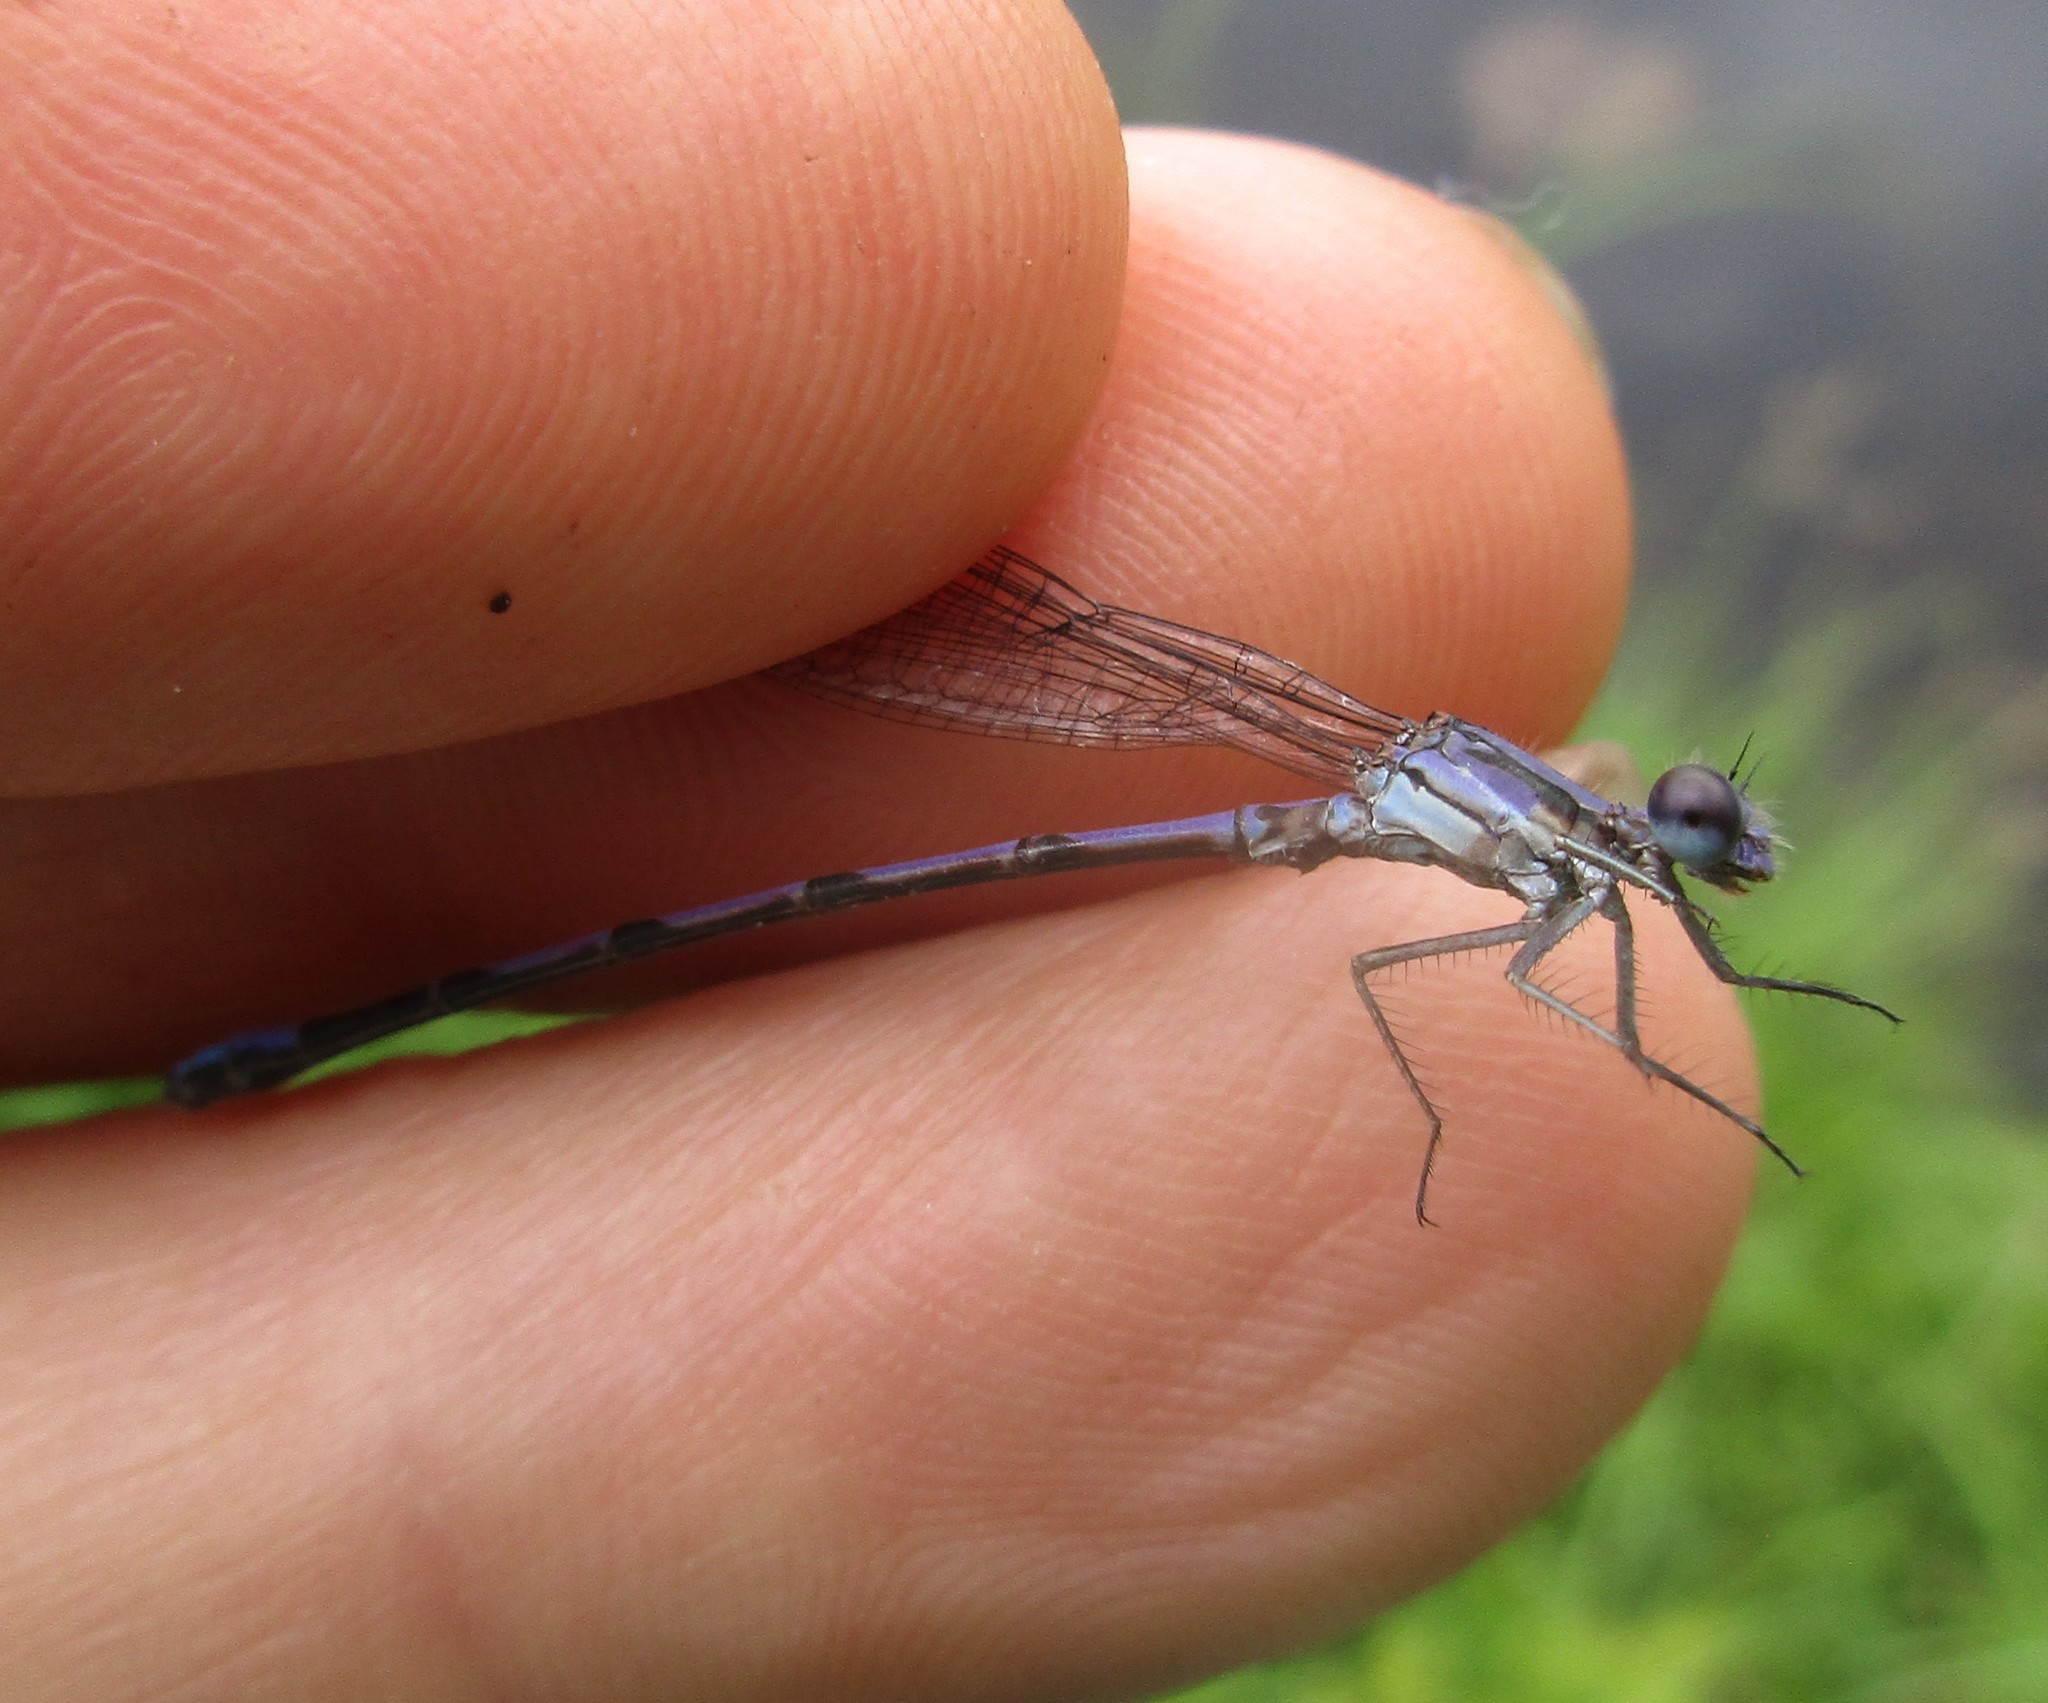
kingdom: Animalia
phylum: Arthropoda
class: Insecta
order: Odonata
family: Coenagrionidae
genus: Argia
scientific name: Argia fumipennis
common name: Variable dancer
